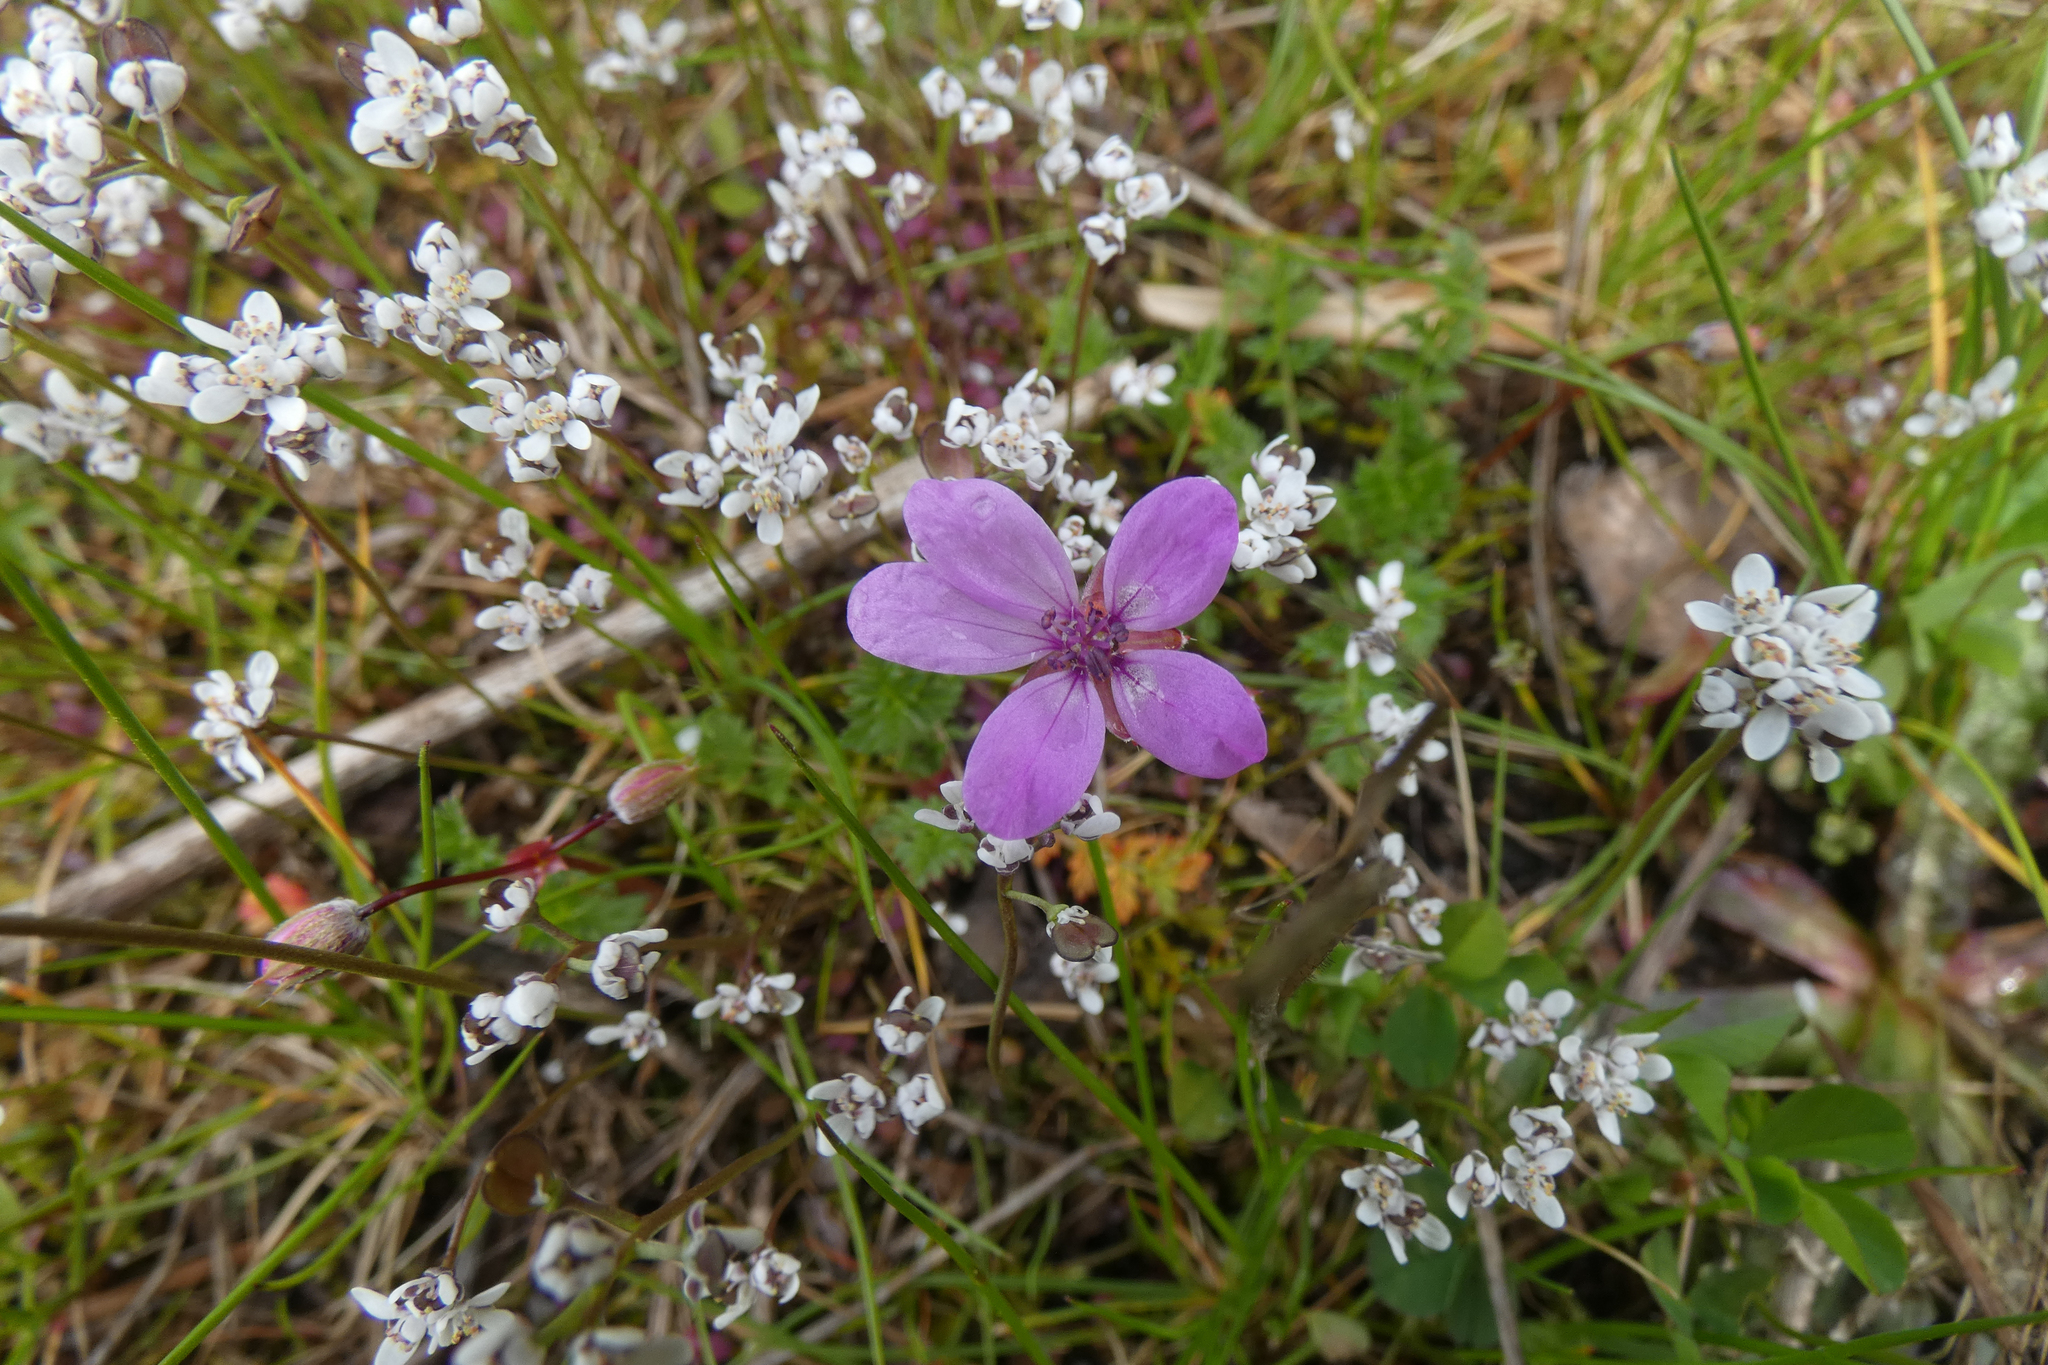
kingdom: Plantae
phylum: Tracheophyta
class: Magnoliopsida
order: Geraniales
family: Geraniaceae
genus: Erodium
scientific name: Erodium cicutarium
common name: Common stork's-bill
